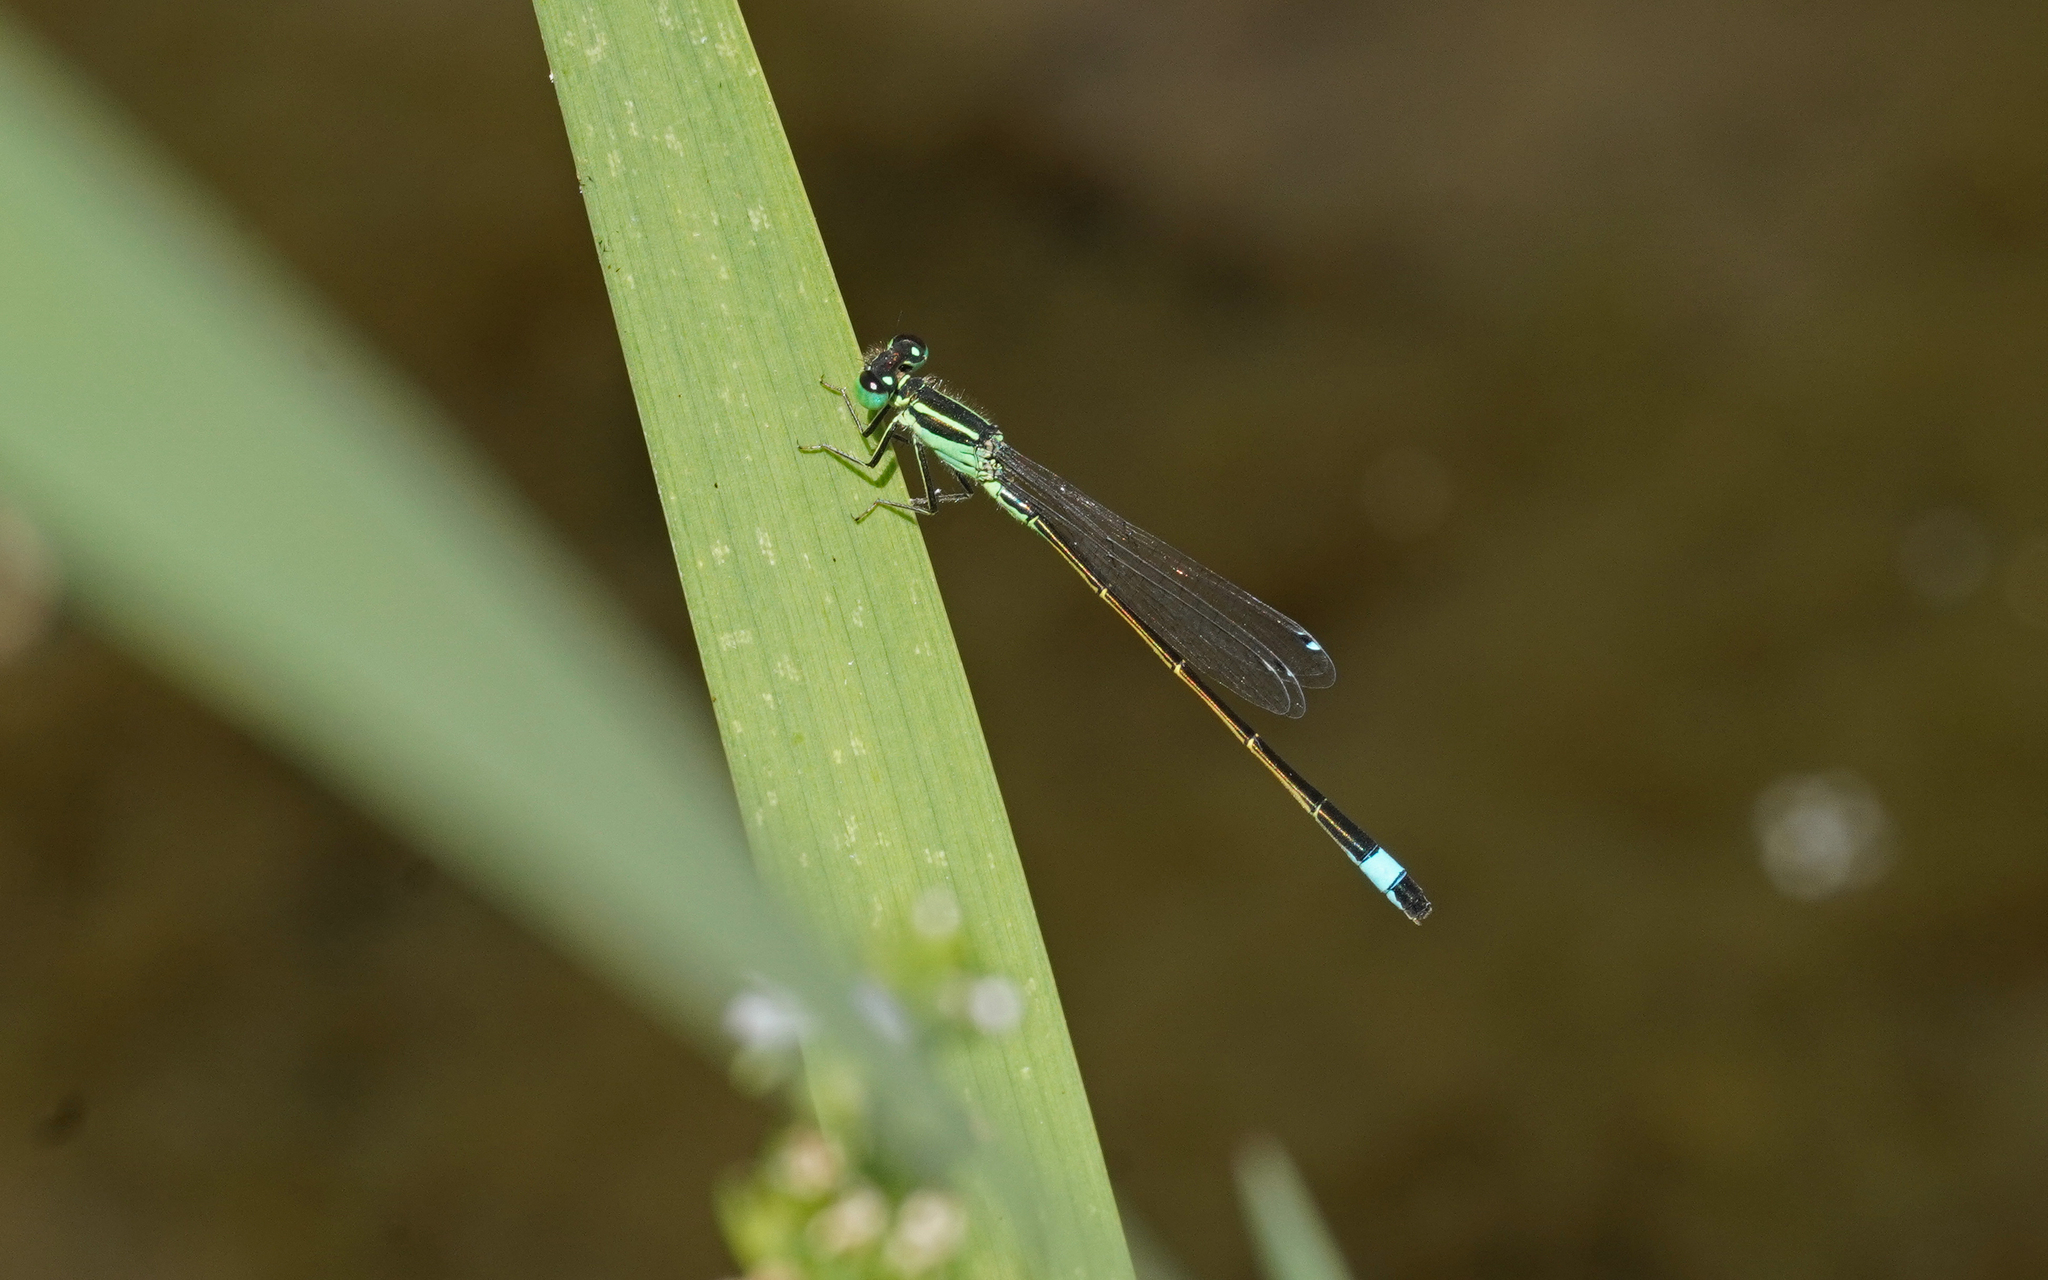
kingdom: Animalia
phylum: Arthropoda
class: Insecta
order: Odonata
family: Coenagrionidae
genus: Ischnura
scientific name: Ischnura genei
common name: Island bluetail
